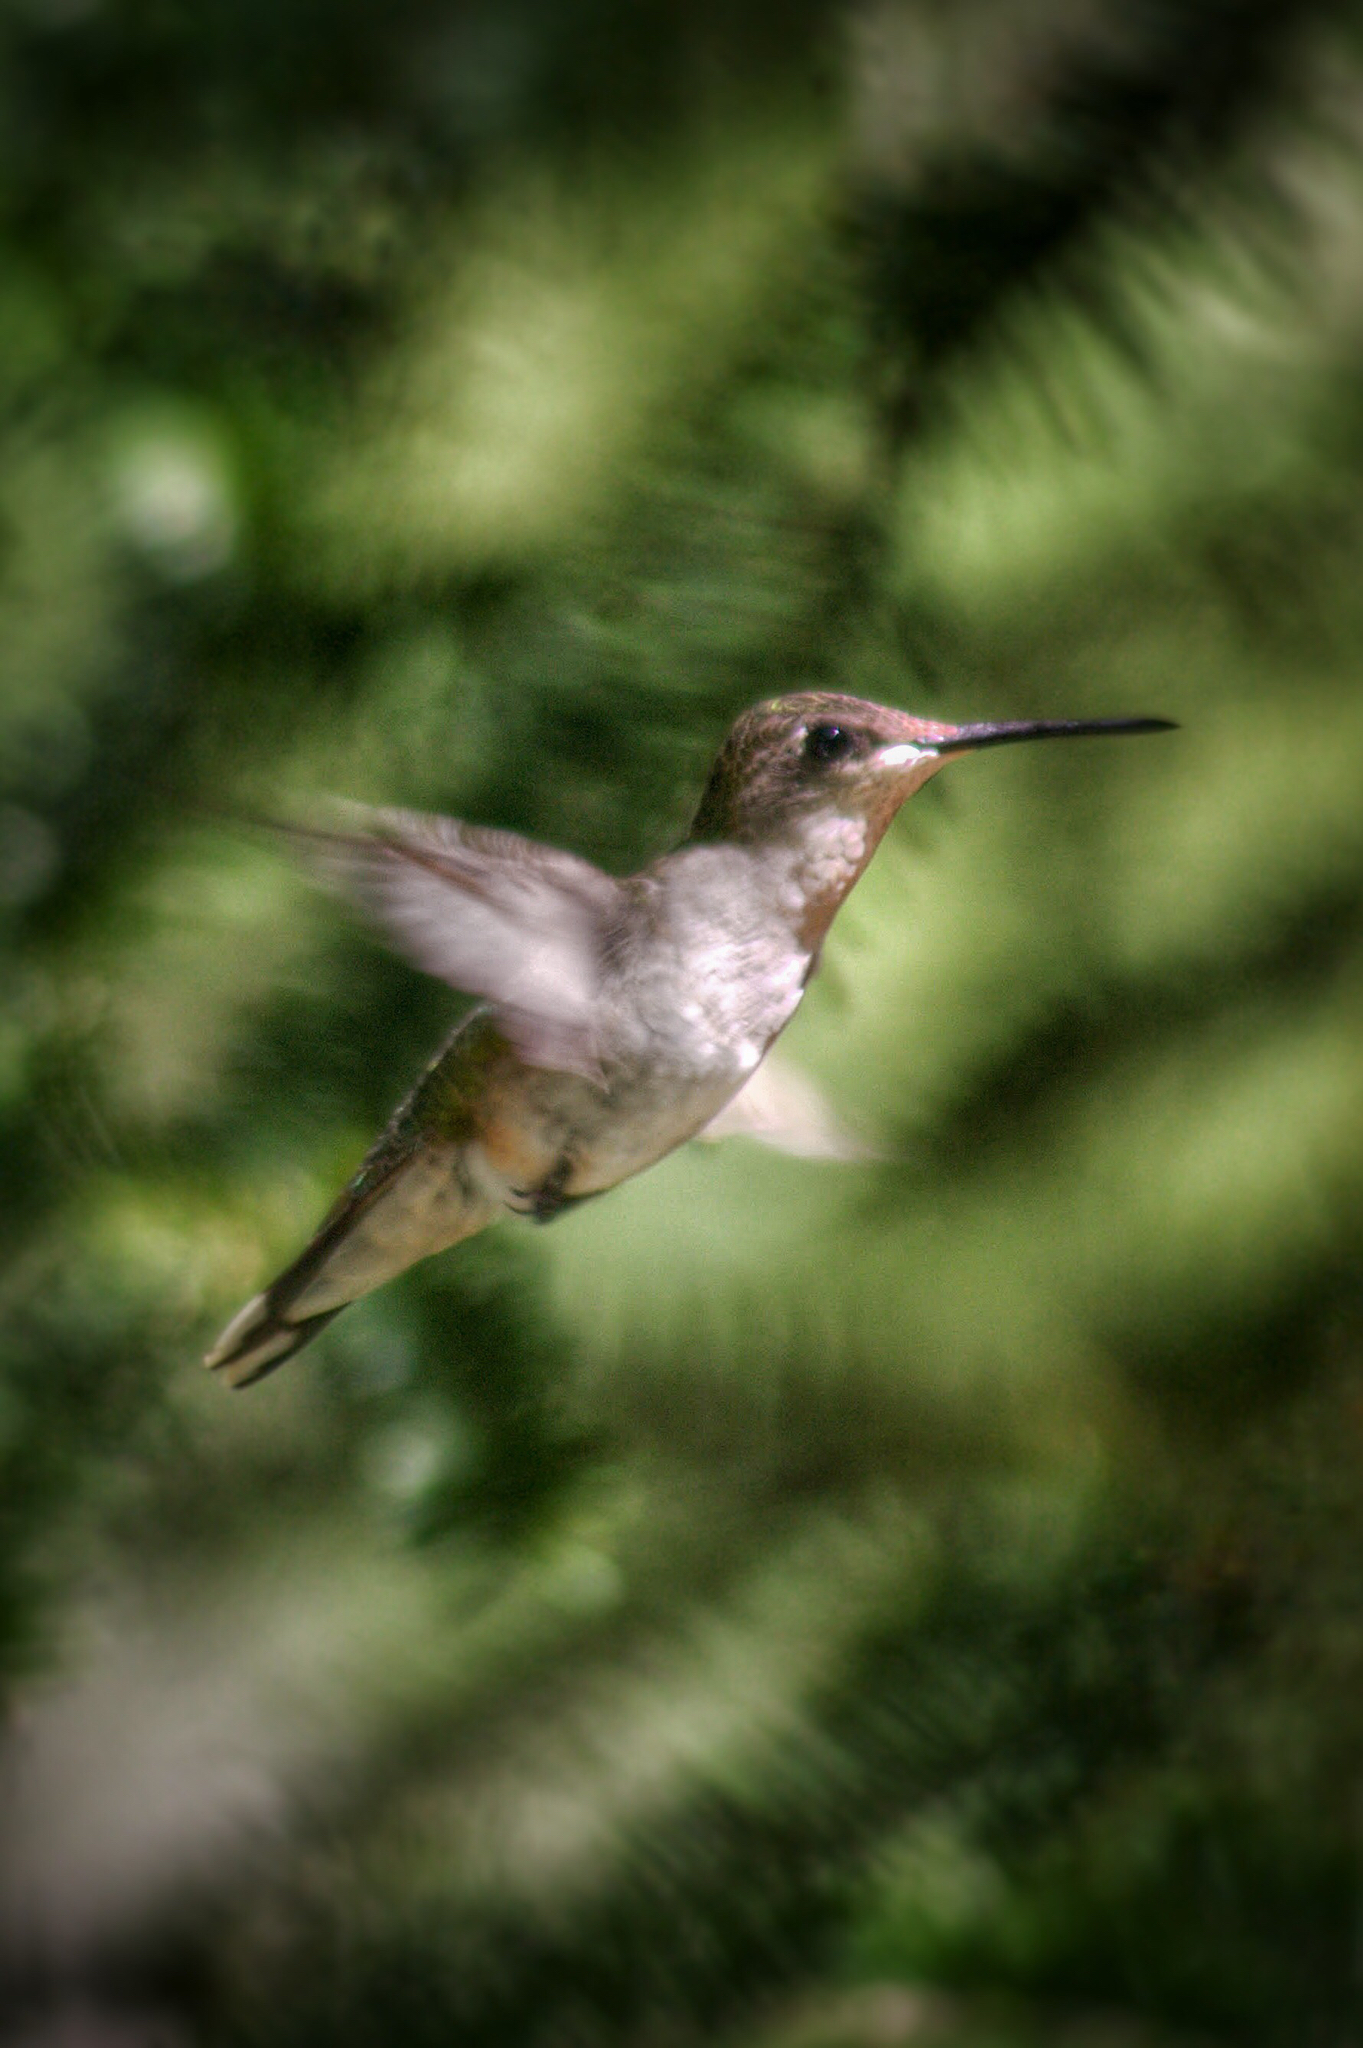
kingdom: Animalia
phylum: Chordata
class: Aves
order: Apodiformes
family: Trochilidae
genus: Archilochus
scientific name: Archilochus colubris
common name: Ruby-throated hummingbird
